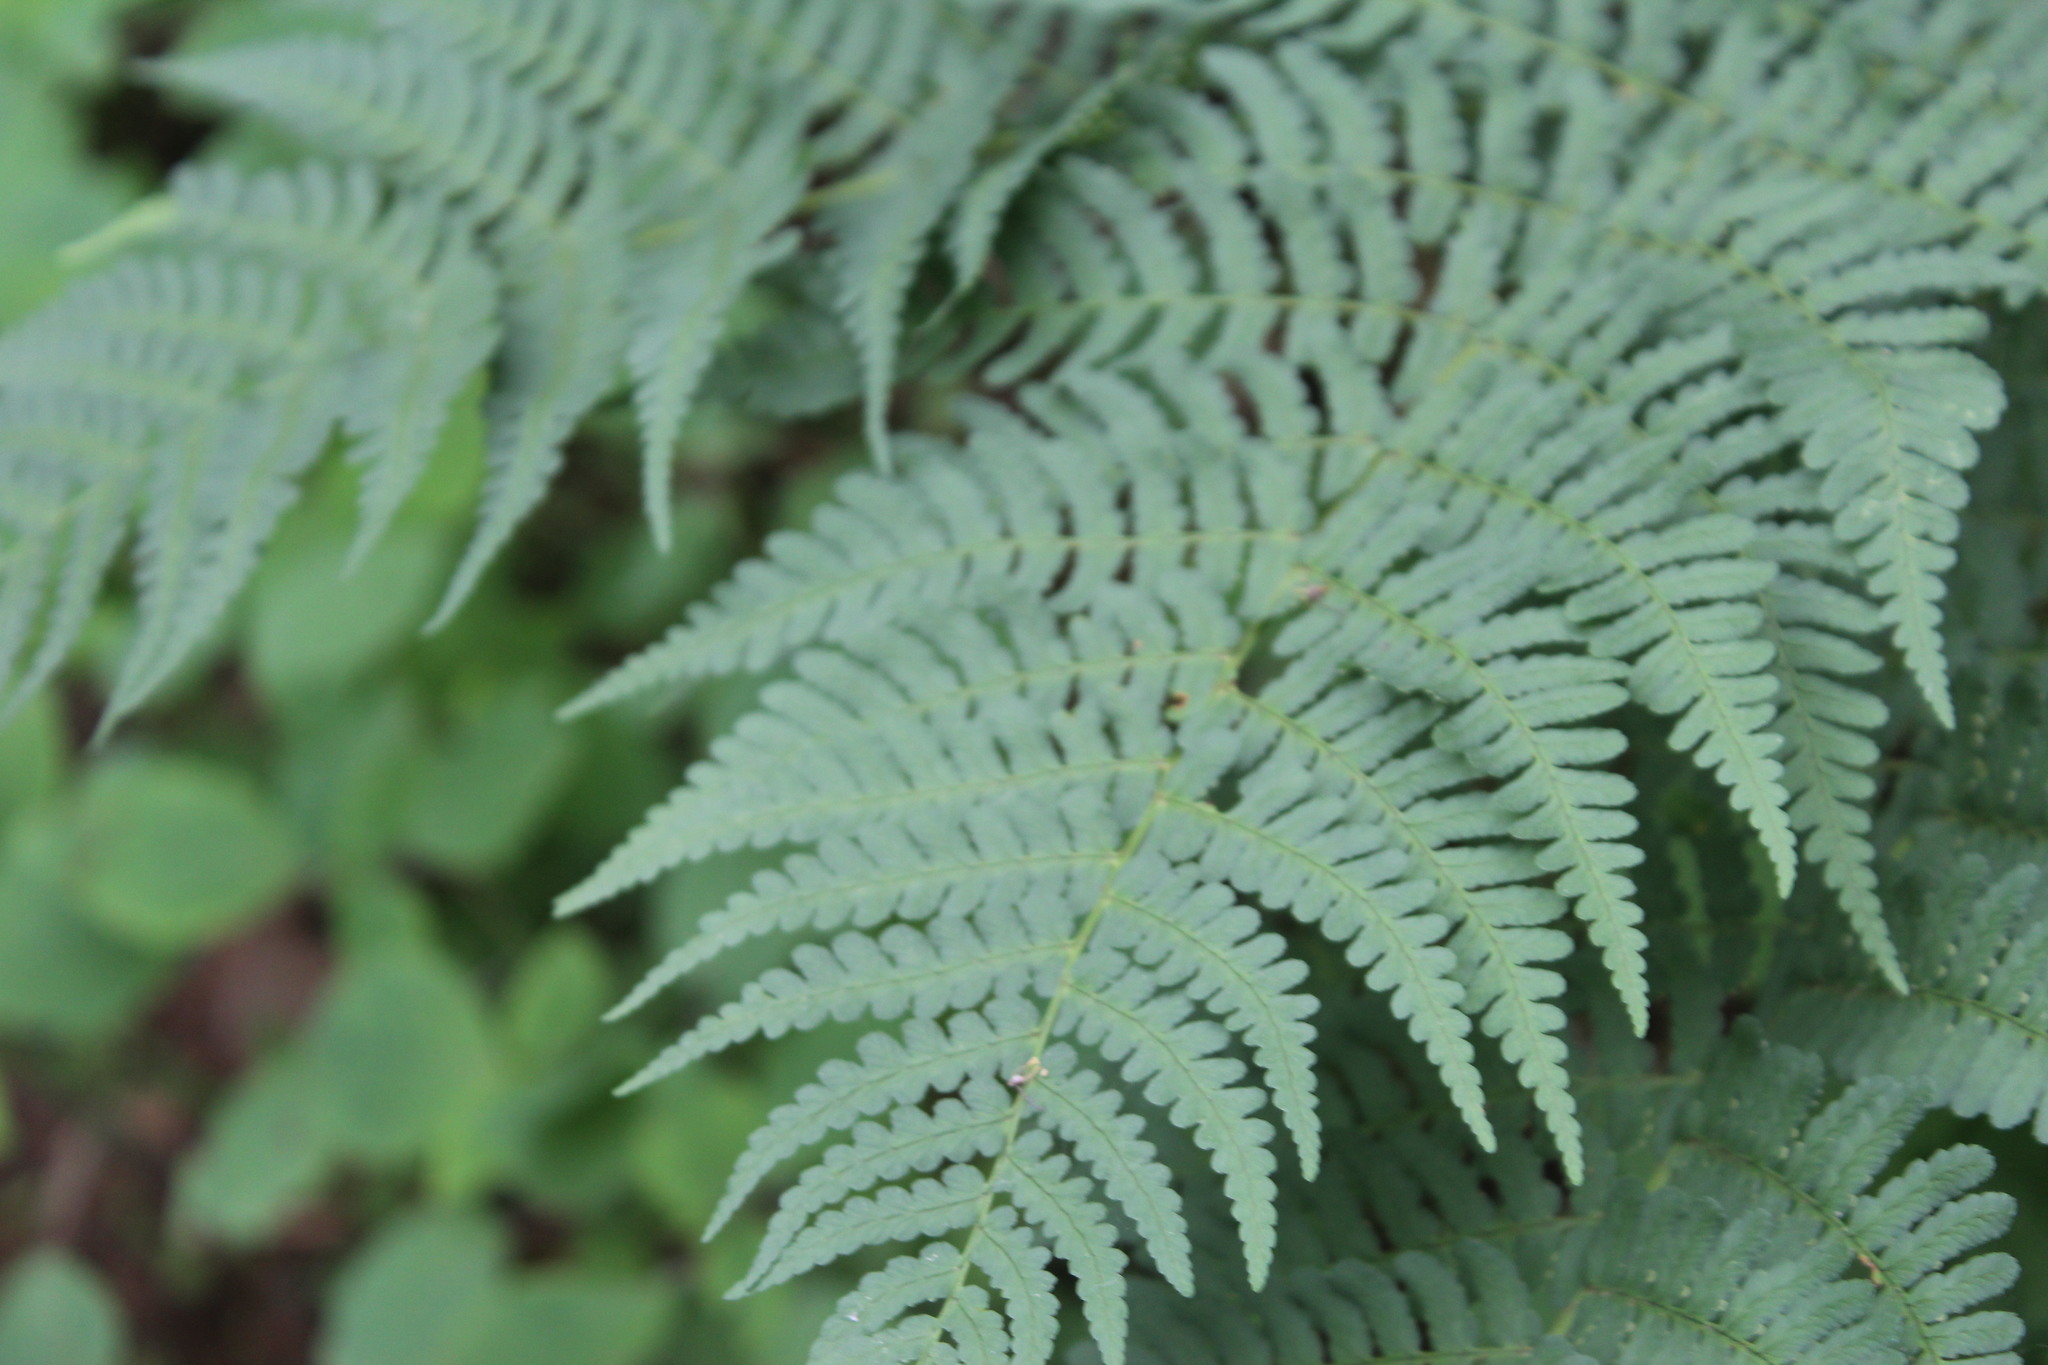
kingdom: Plantae
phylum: Tracheophyta
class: Polypodiopsida
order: Polypodiales
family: Dryopteridaceae
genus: Dryopteris
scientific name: Dryopteris marginalis
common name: Marginal wood fern
